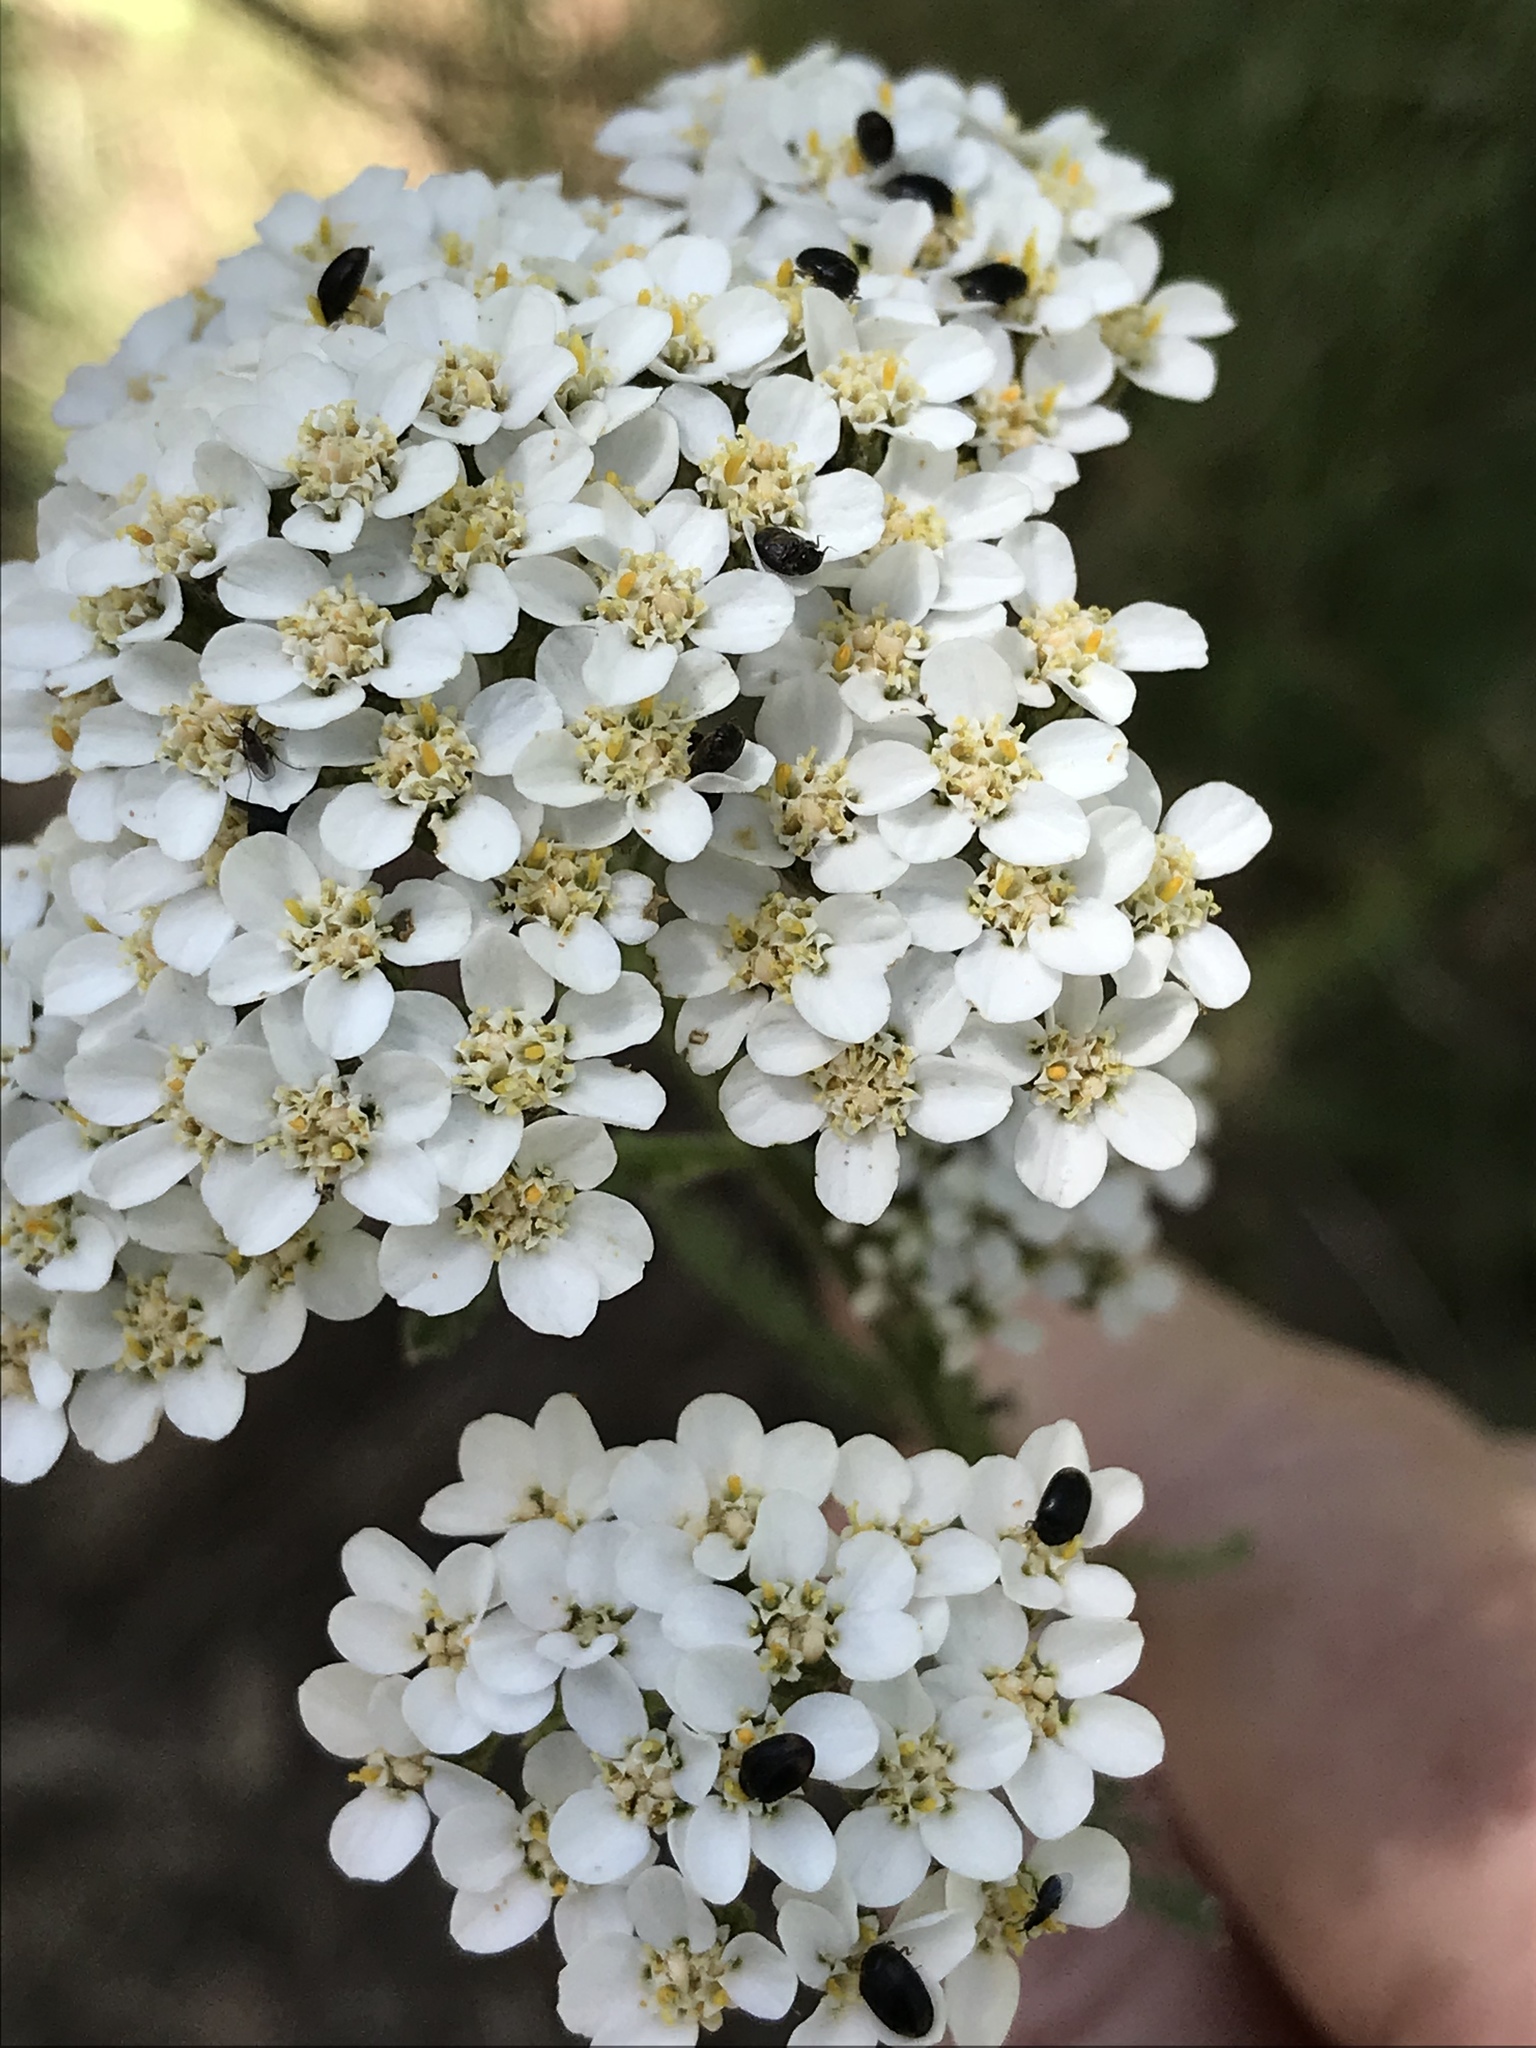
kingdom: Plantae
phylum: Tracheophyta
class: Magnoliopsida
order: Asterales
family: Asteraceae
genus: Achillea
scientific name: Achillea millefolium
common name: Yarrow
